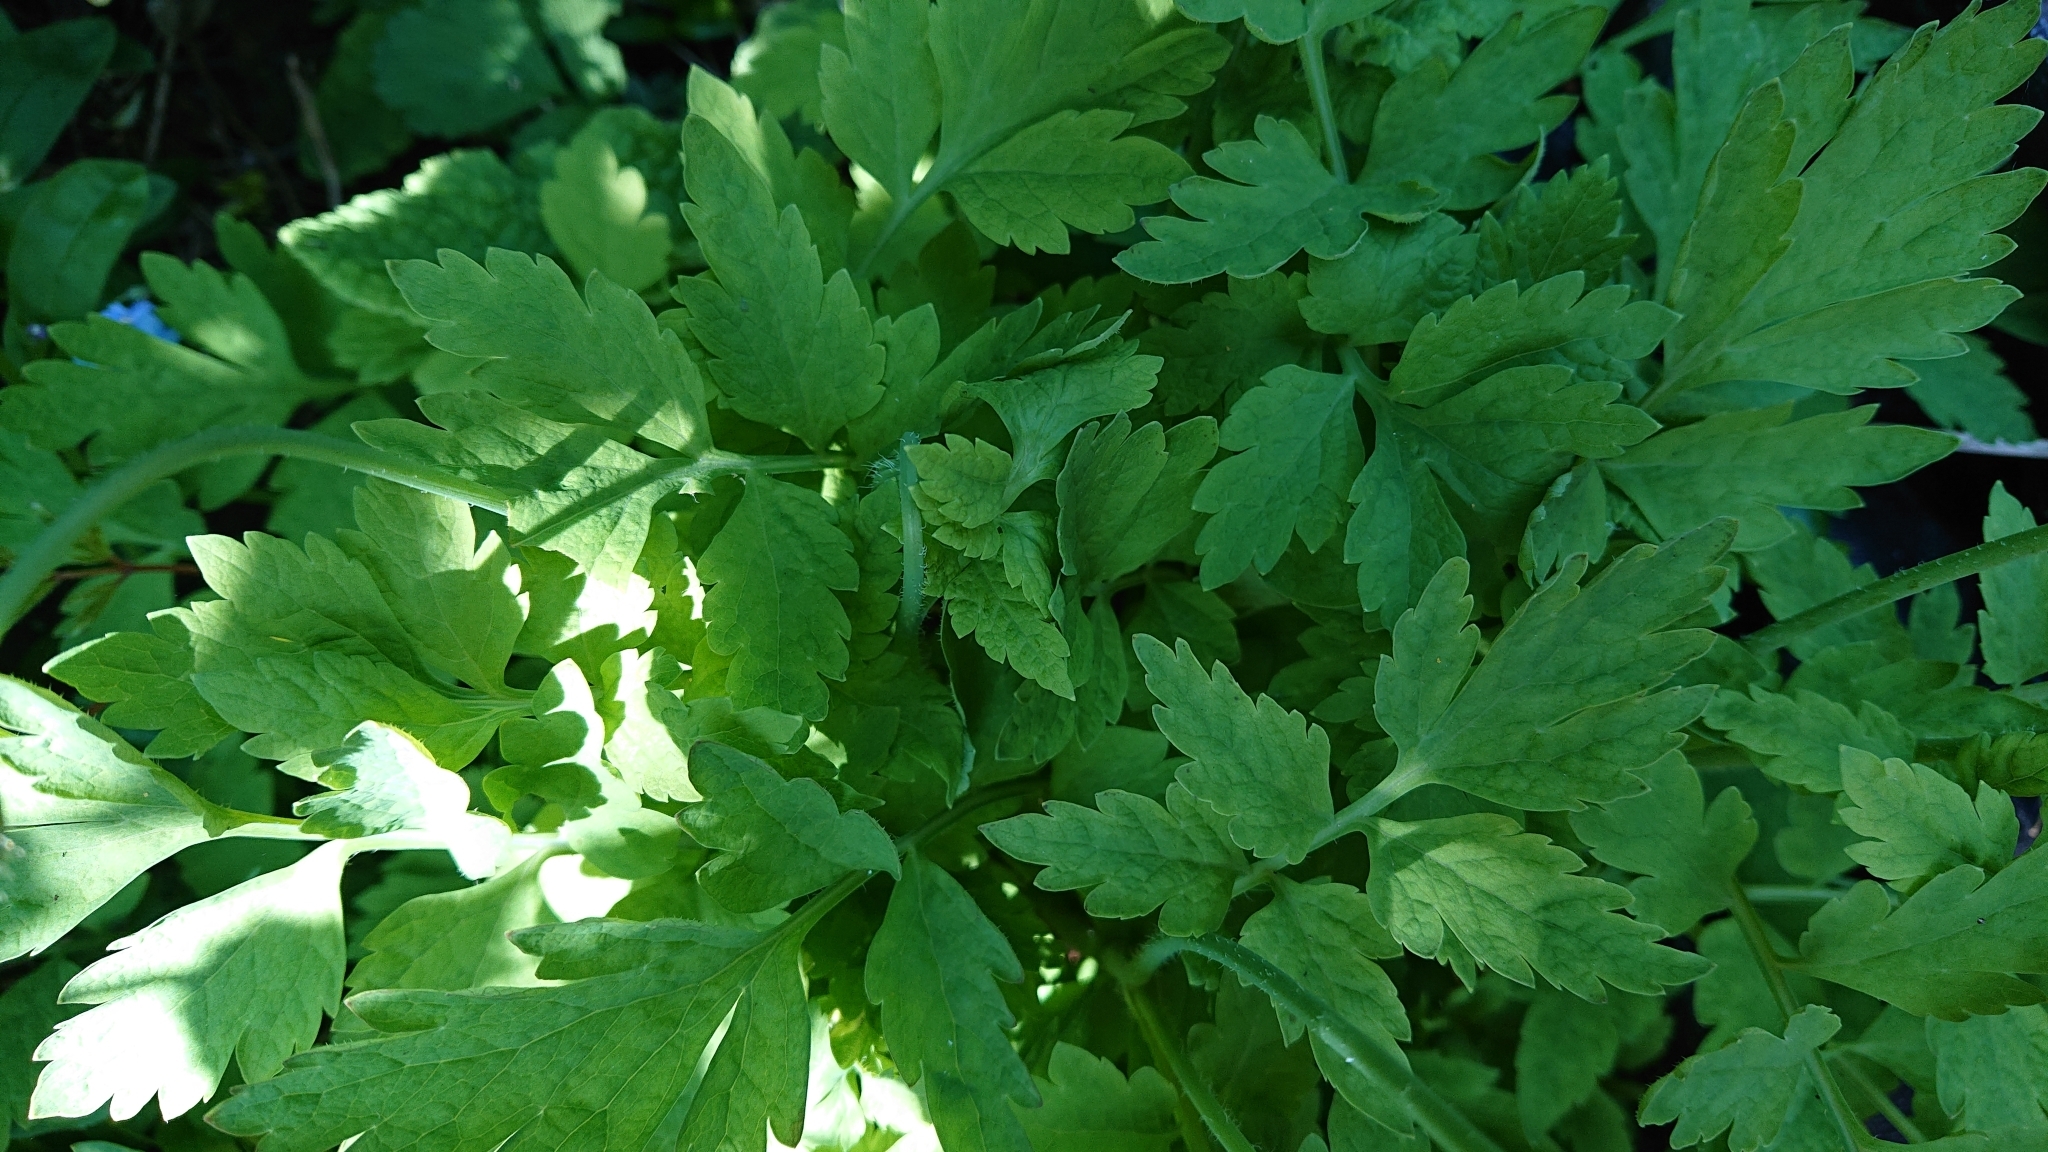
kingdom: Plantae
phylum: Tracheophyta
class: Magnoliopsida
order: Ranunculales
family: Papaveraceae
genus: Eschscholzia
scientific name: Eschscholzia californica
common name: California poppy
